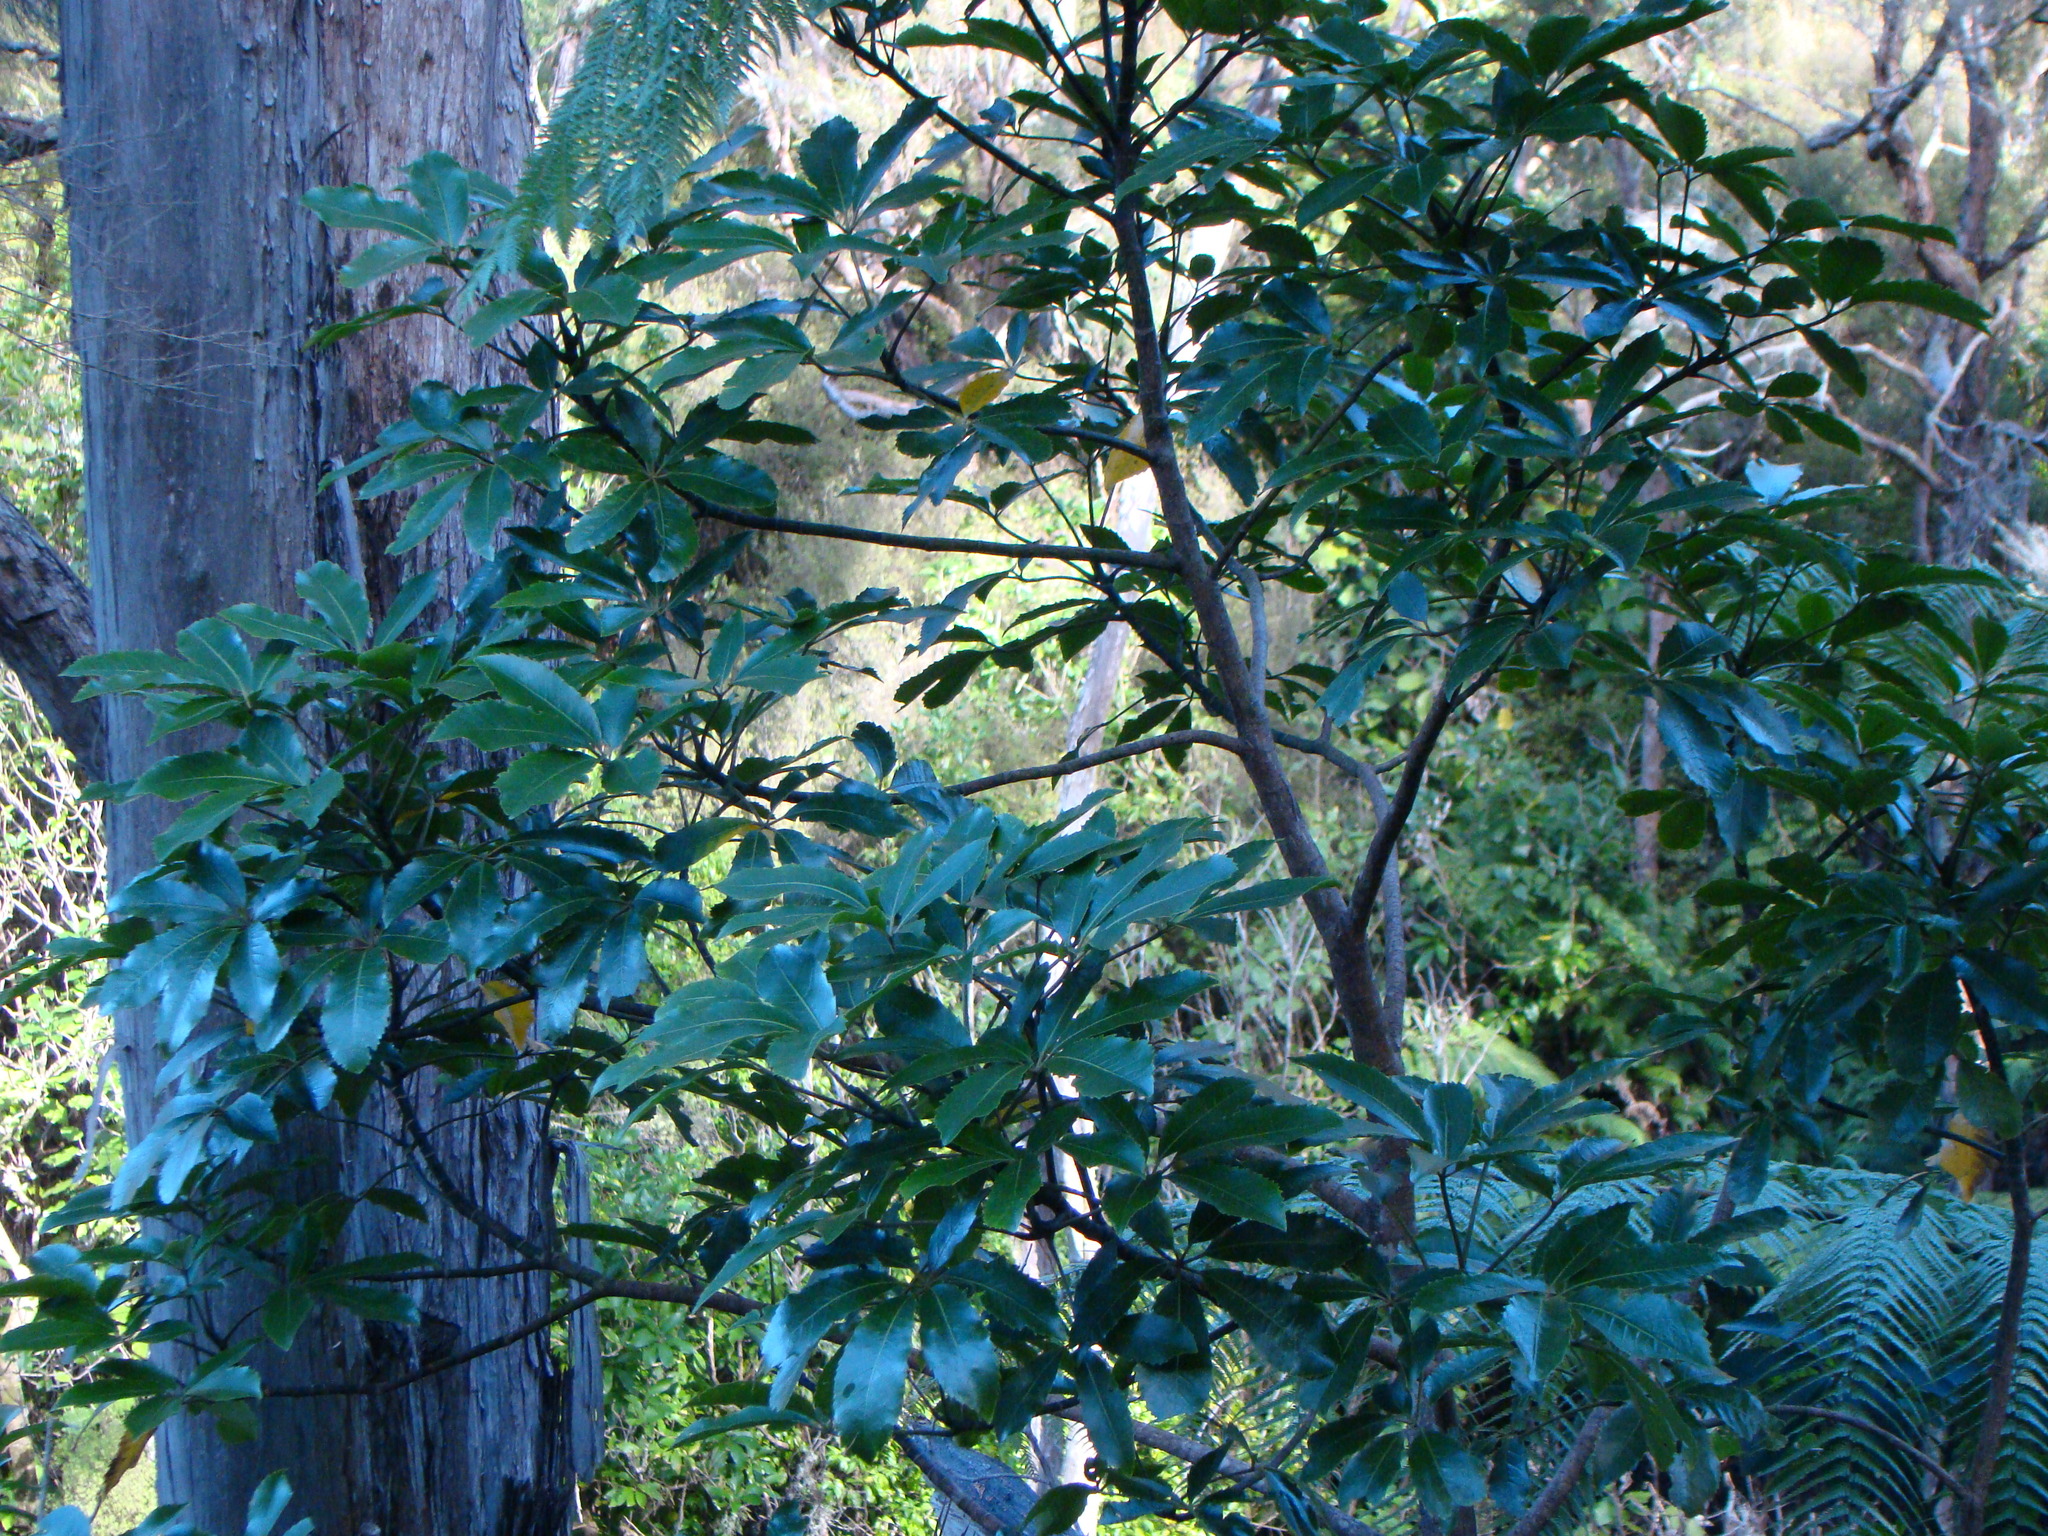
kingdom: Plantae
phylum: Tracheophyta
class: Magnoliopsida
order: Apiales
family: Araliaceae
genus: Neopanax
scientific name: Neopanax arboreus
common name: Five-fingers
